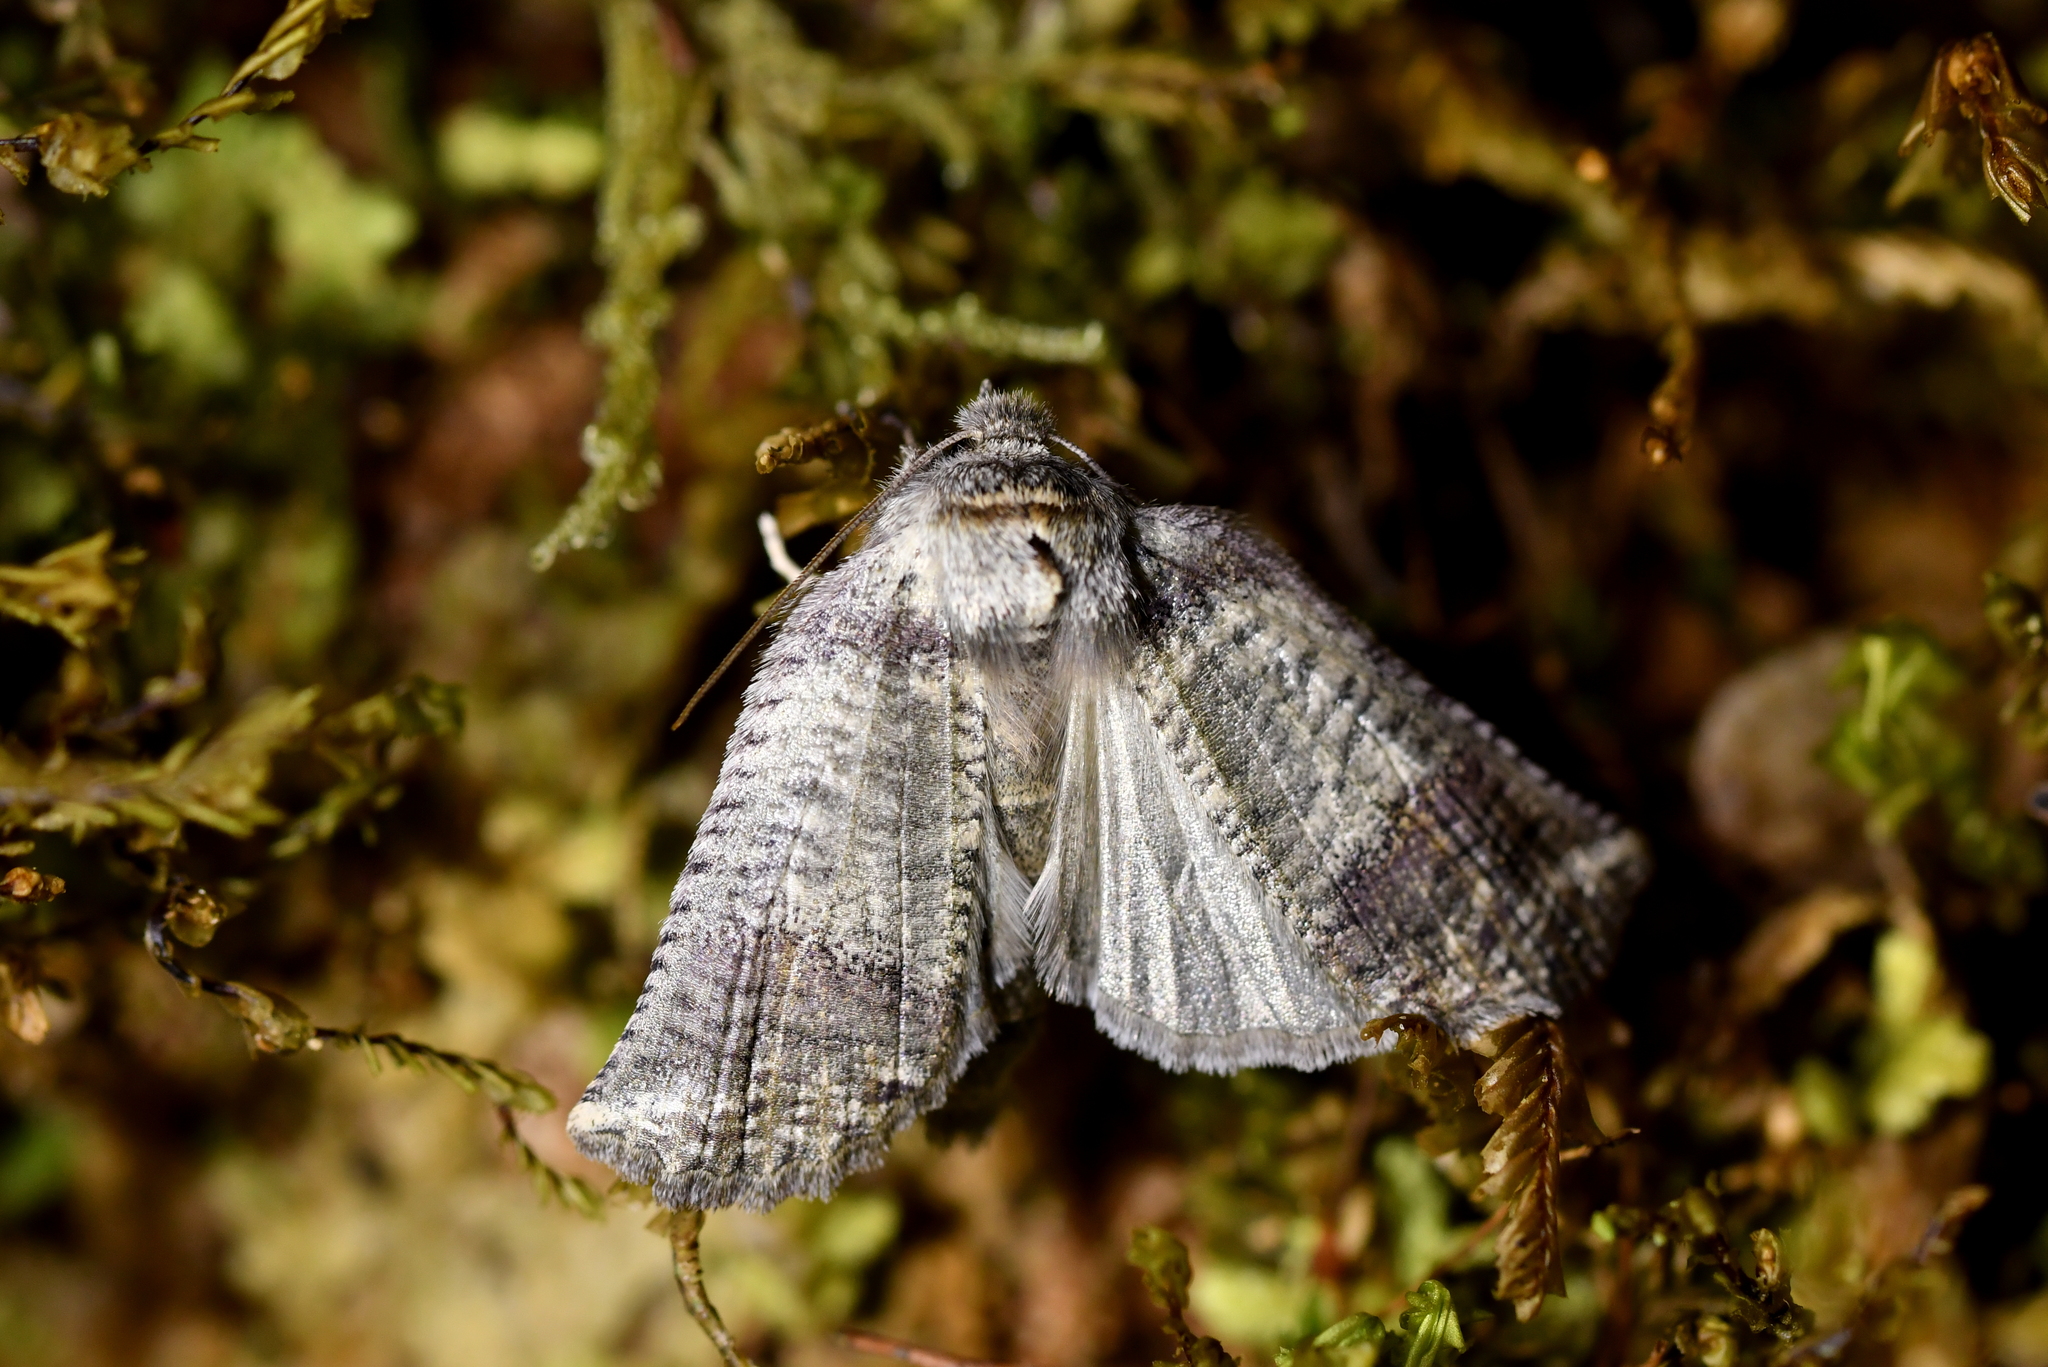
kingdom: Animalia
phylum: Arthropoda
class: Insecta
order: Lepidoptera
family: Geometridae
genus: Declana
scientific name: Declana
